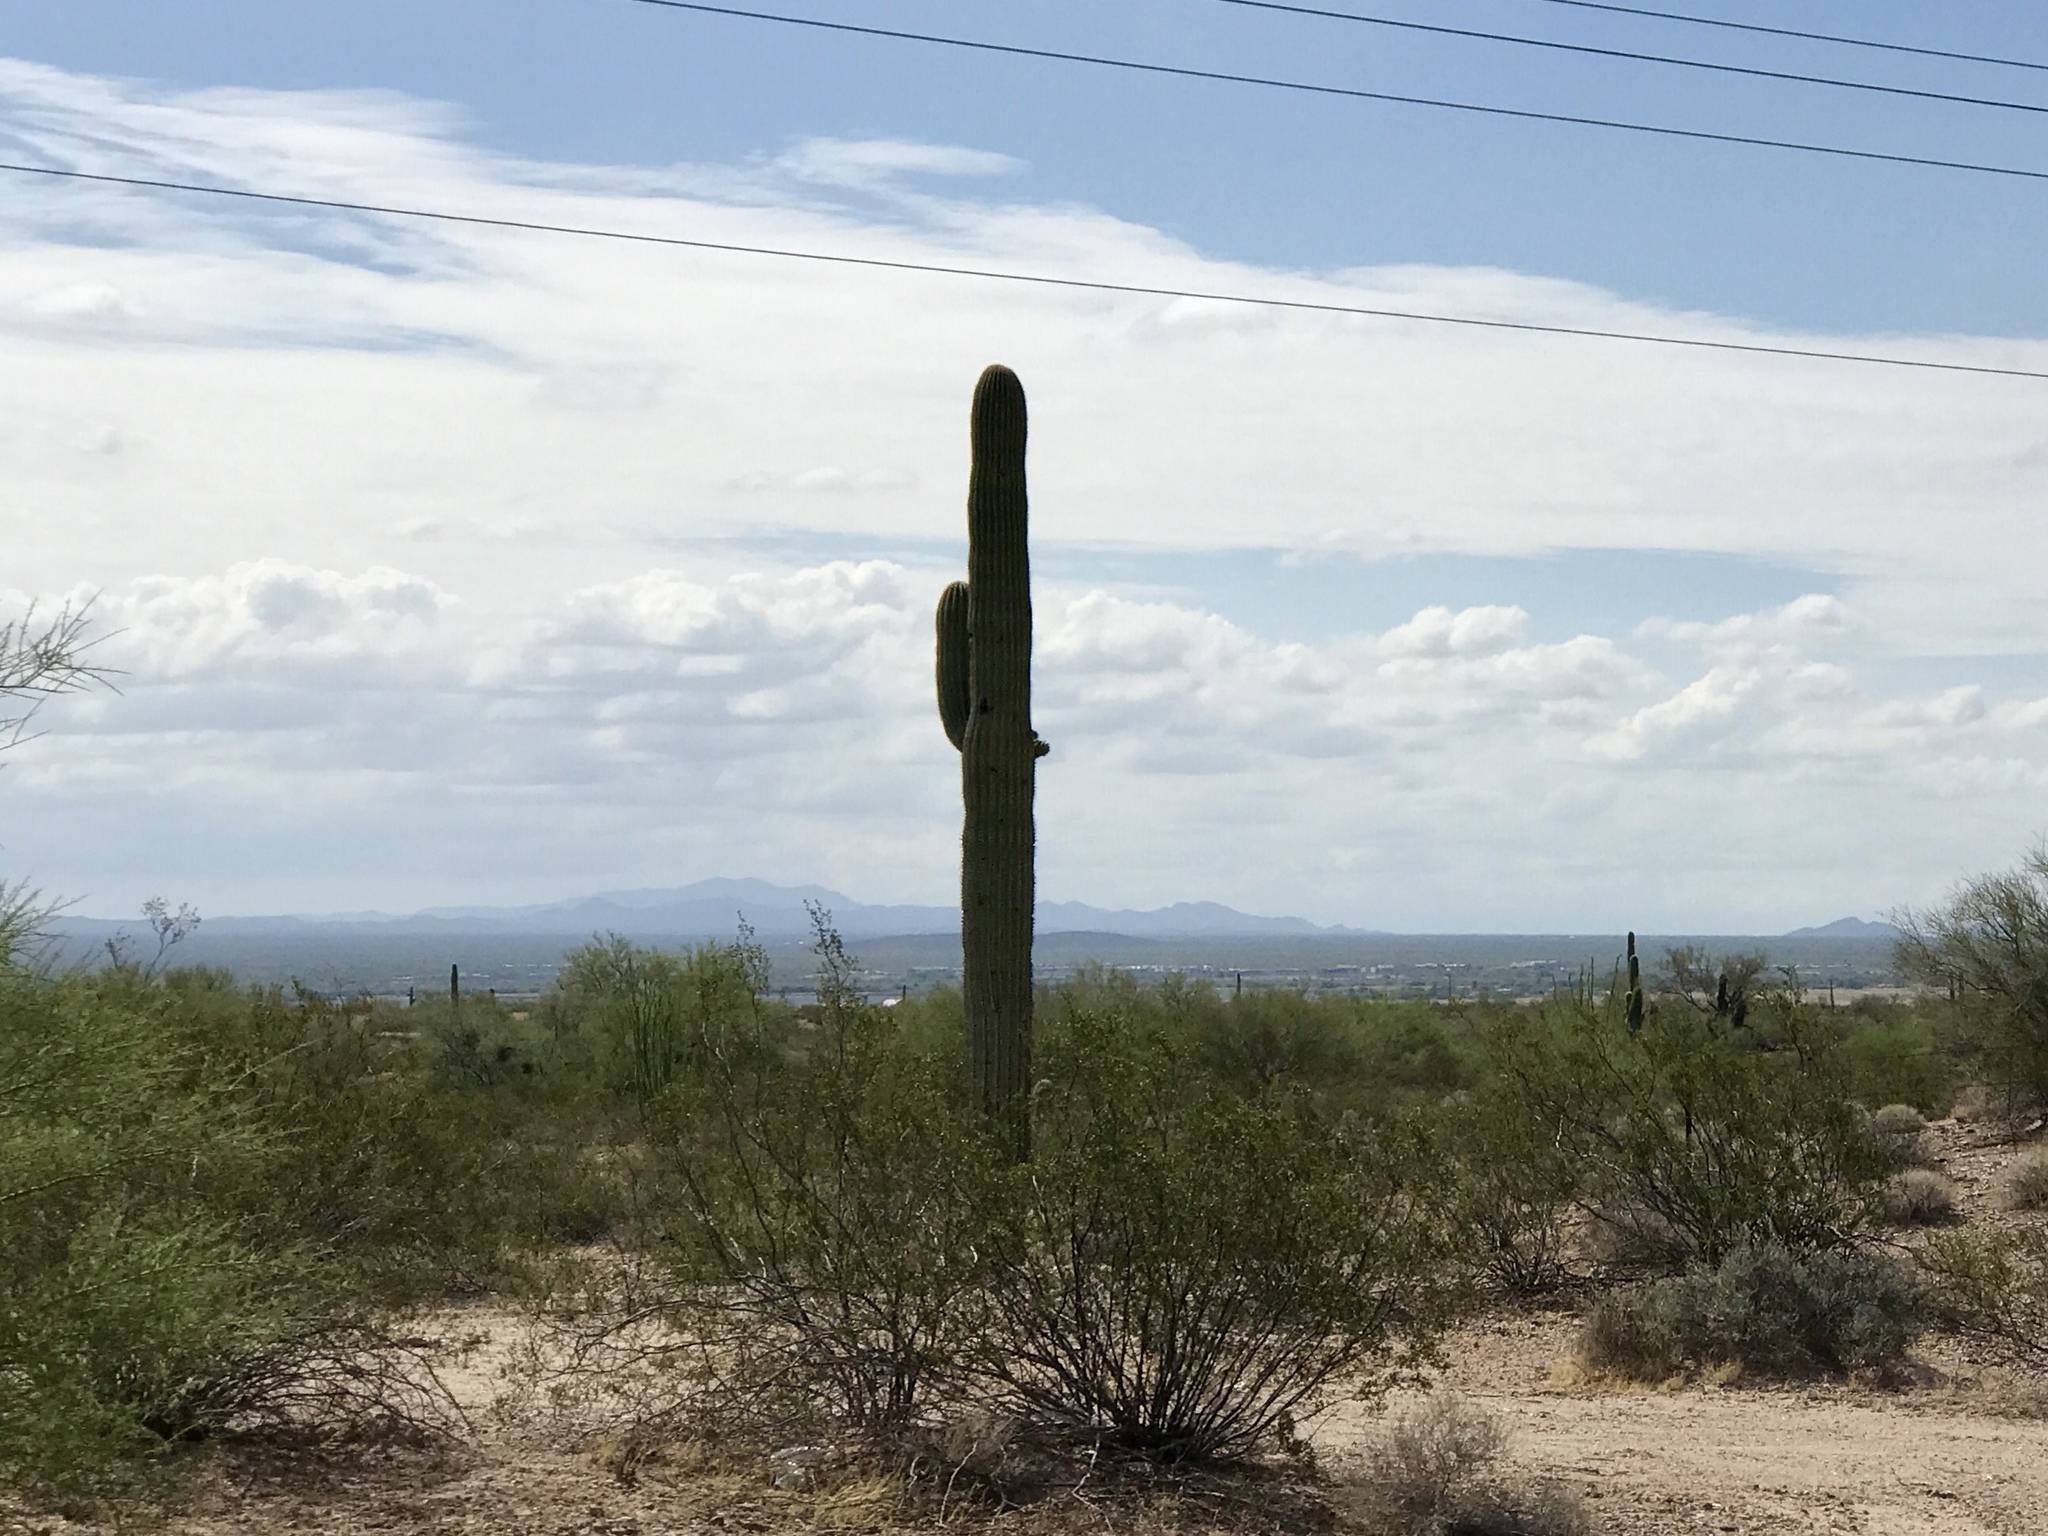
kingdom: Plantae
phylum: Tracheophyta
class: Magnoliopsida
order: Caryophyllales
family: Cactaceae
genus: Carnegiea
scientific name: Carnegiea gigantea
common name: Saguaro
